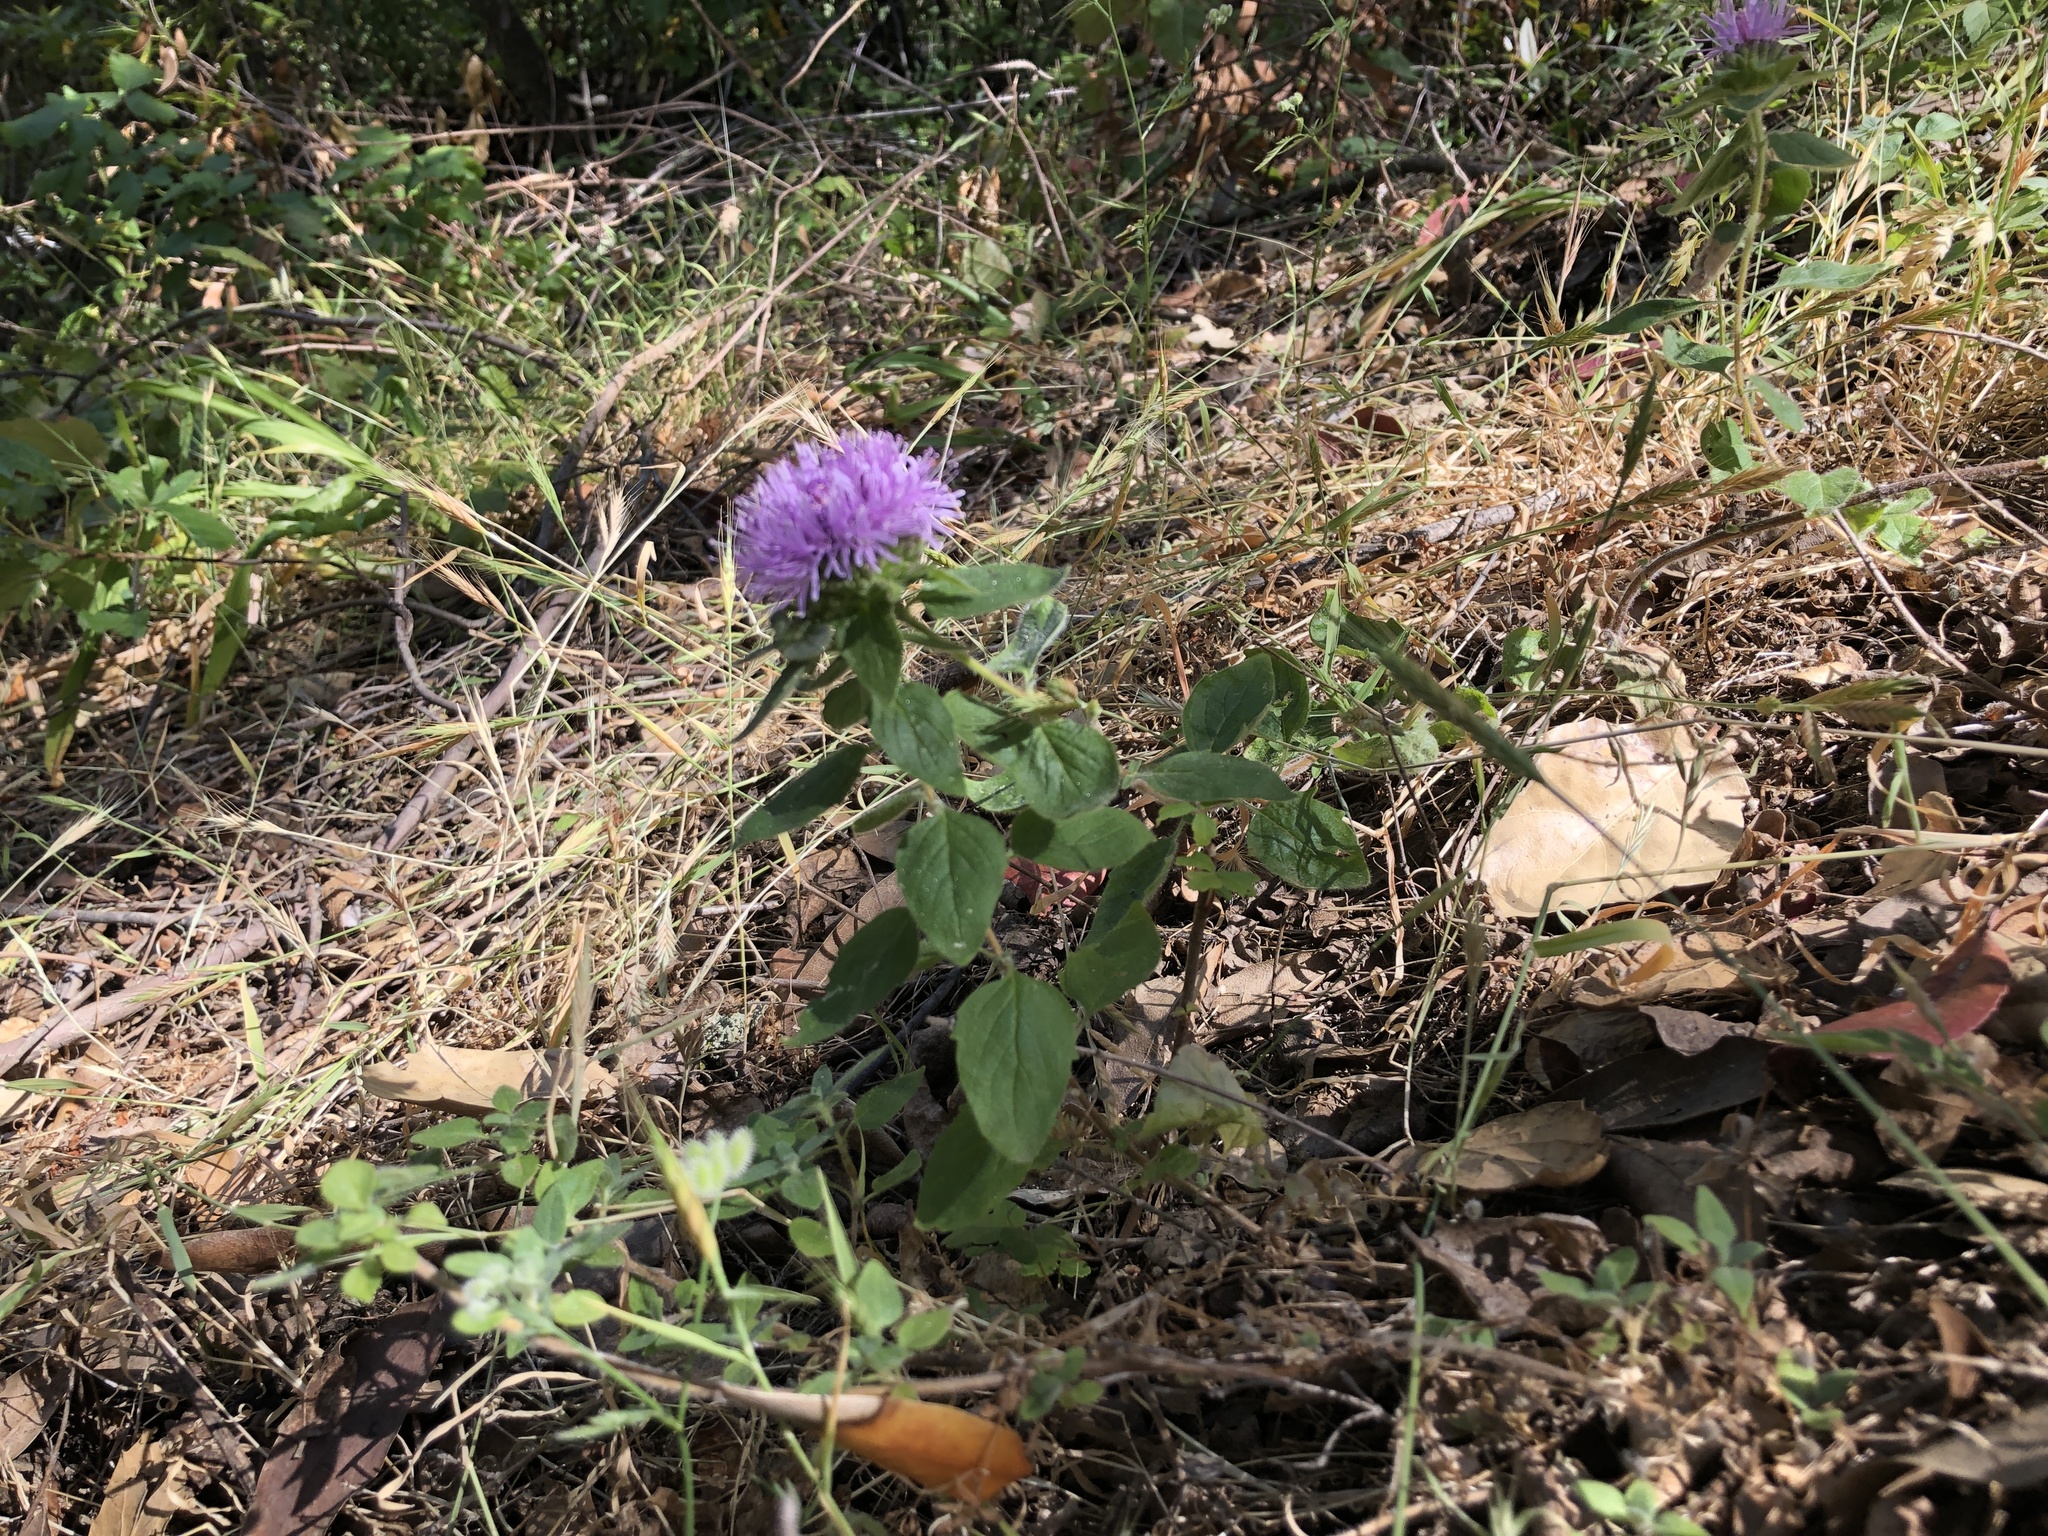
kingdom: Plantae
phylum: Tracheophyta
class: Magnoliopsida
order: Lamiales
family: Lamiaceae
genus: Monardella
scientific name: Monardella odoratissima
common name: Pacific monardella
